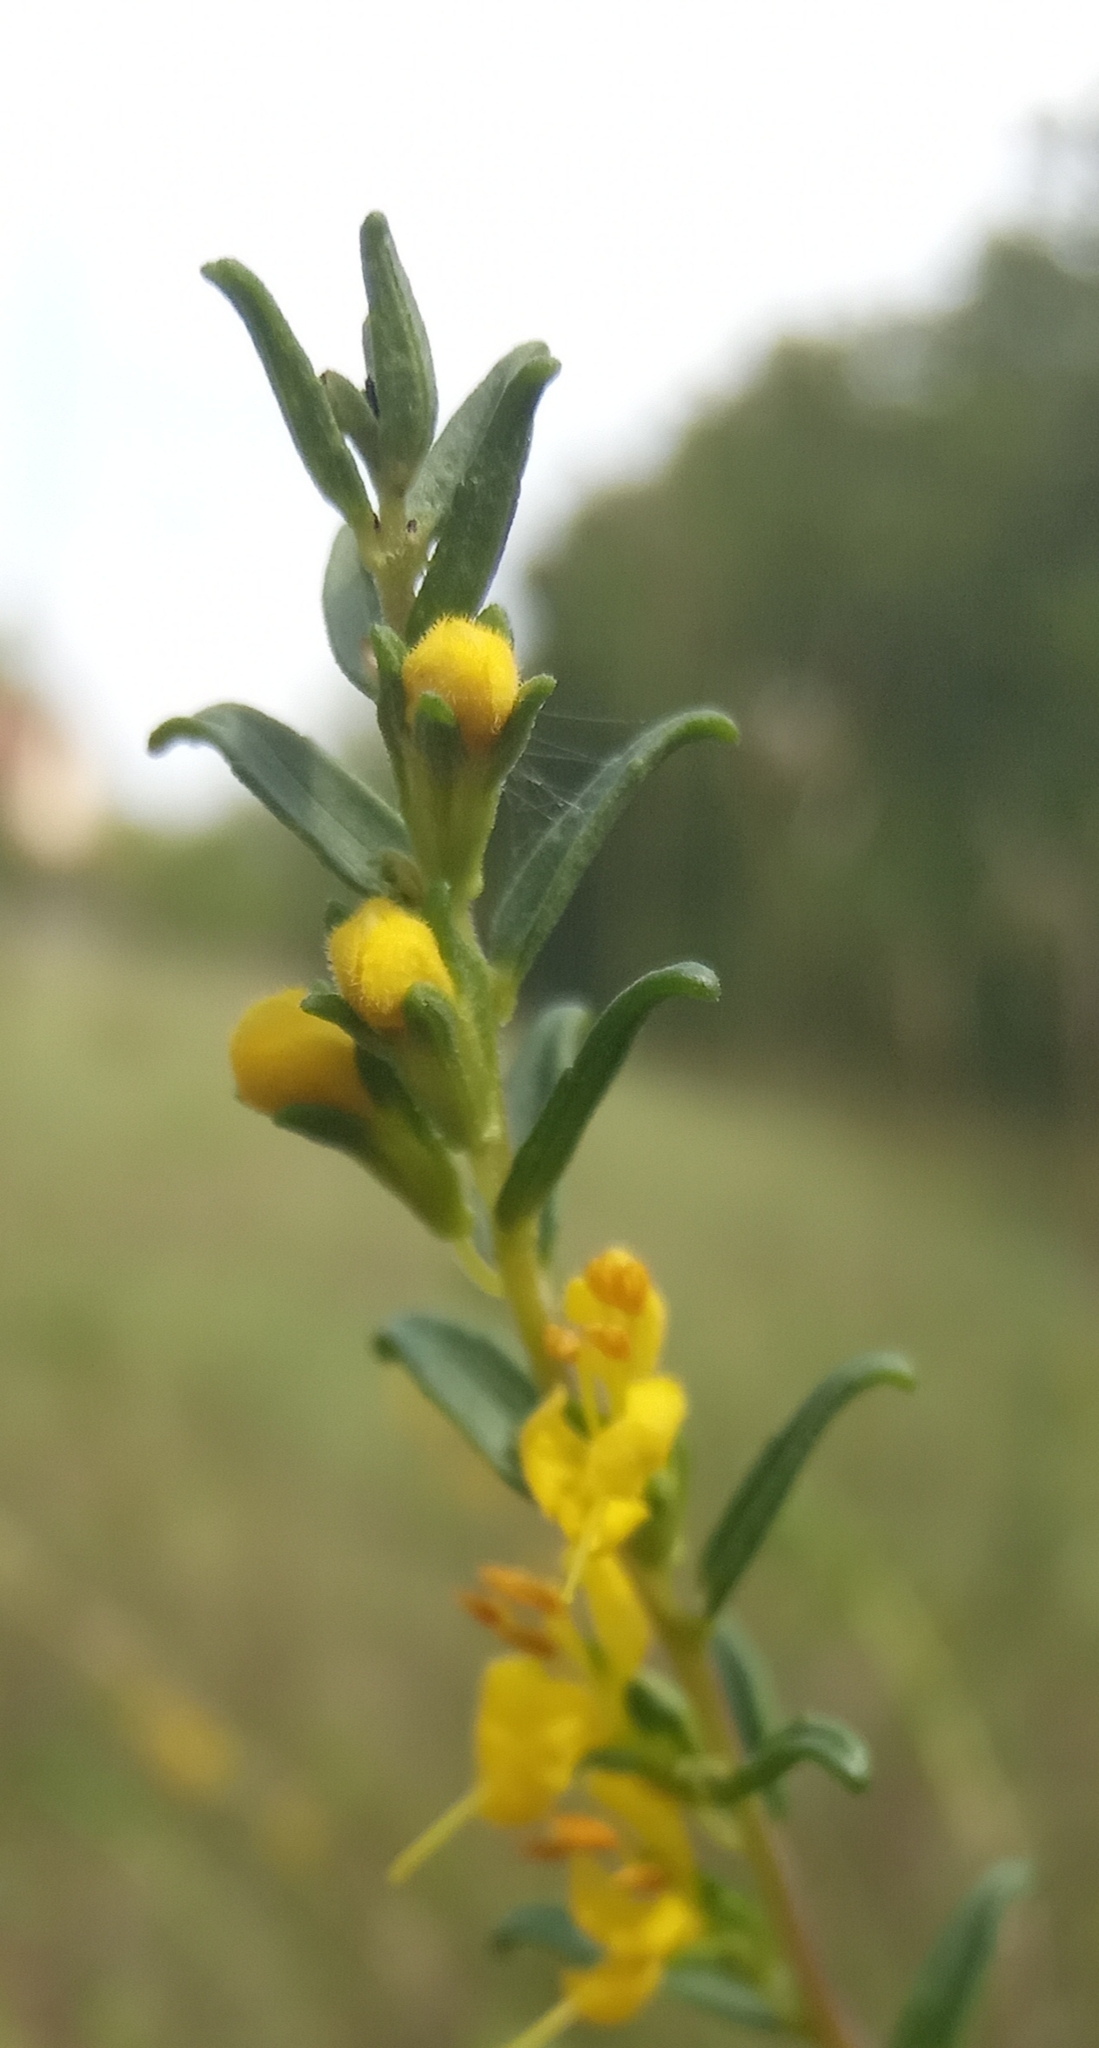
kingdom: Plantae
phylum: Tracheophyta
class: Magnoliopsida
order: Lamiales
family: Orobanchaceae
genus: Odontites
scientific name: Odontites luteus
